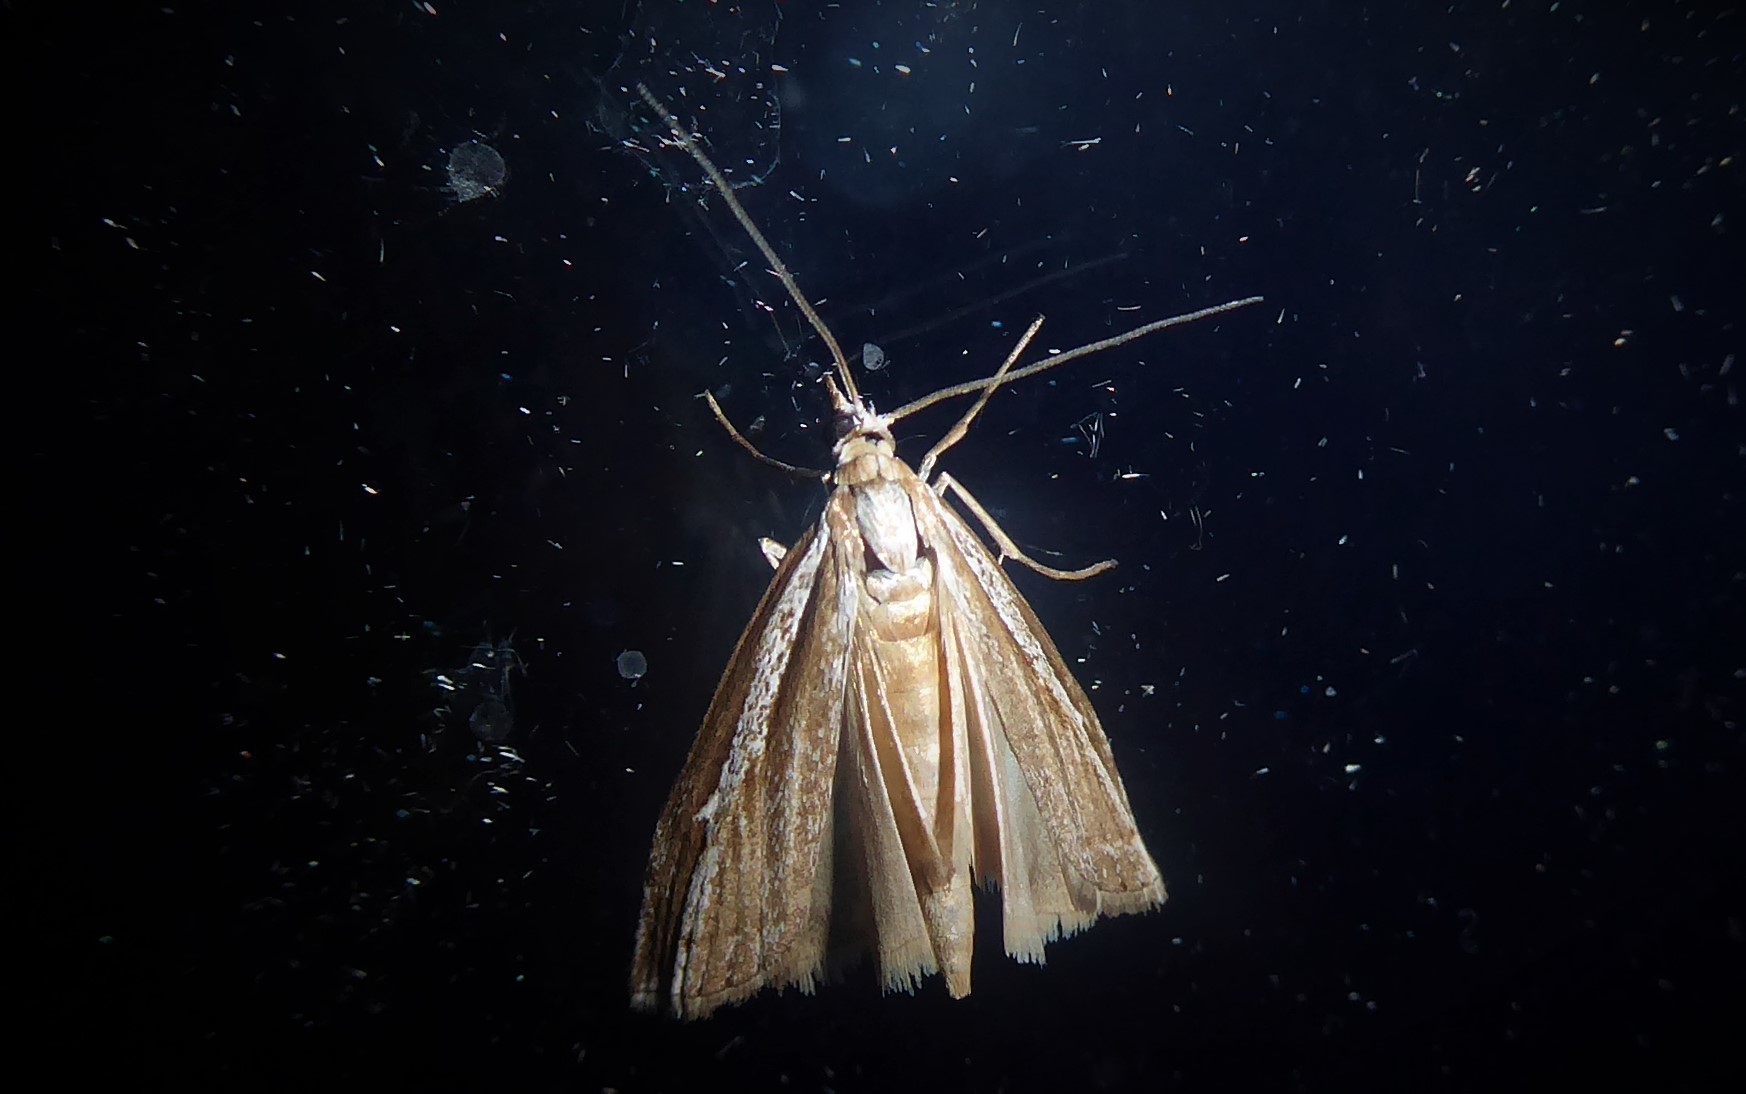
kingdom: Animalia
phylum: Arthropoda
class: Insecta
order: Lepidoptera
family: Crambidae
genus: Orocrambus
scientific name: Orocrambus vittellus
